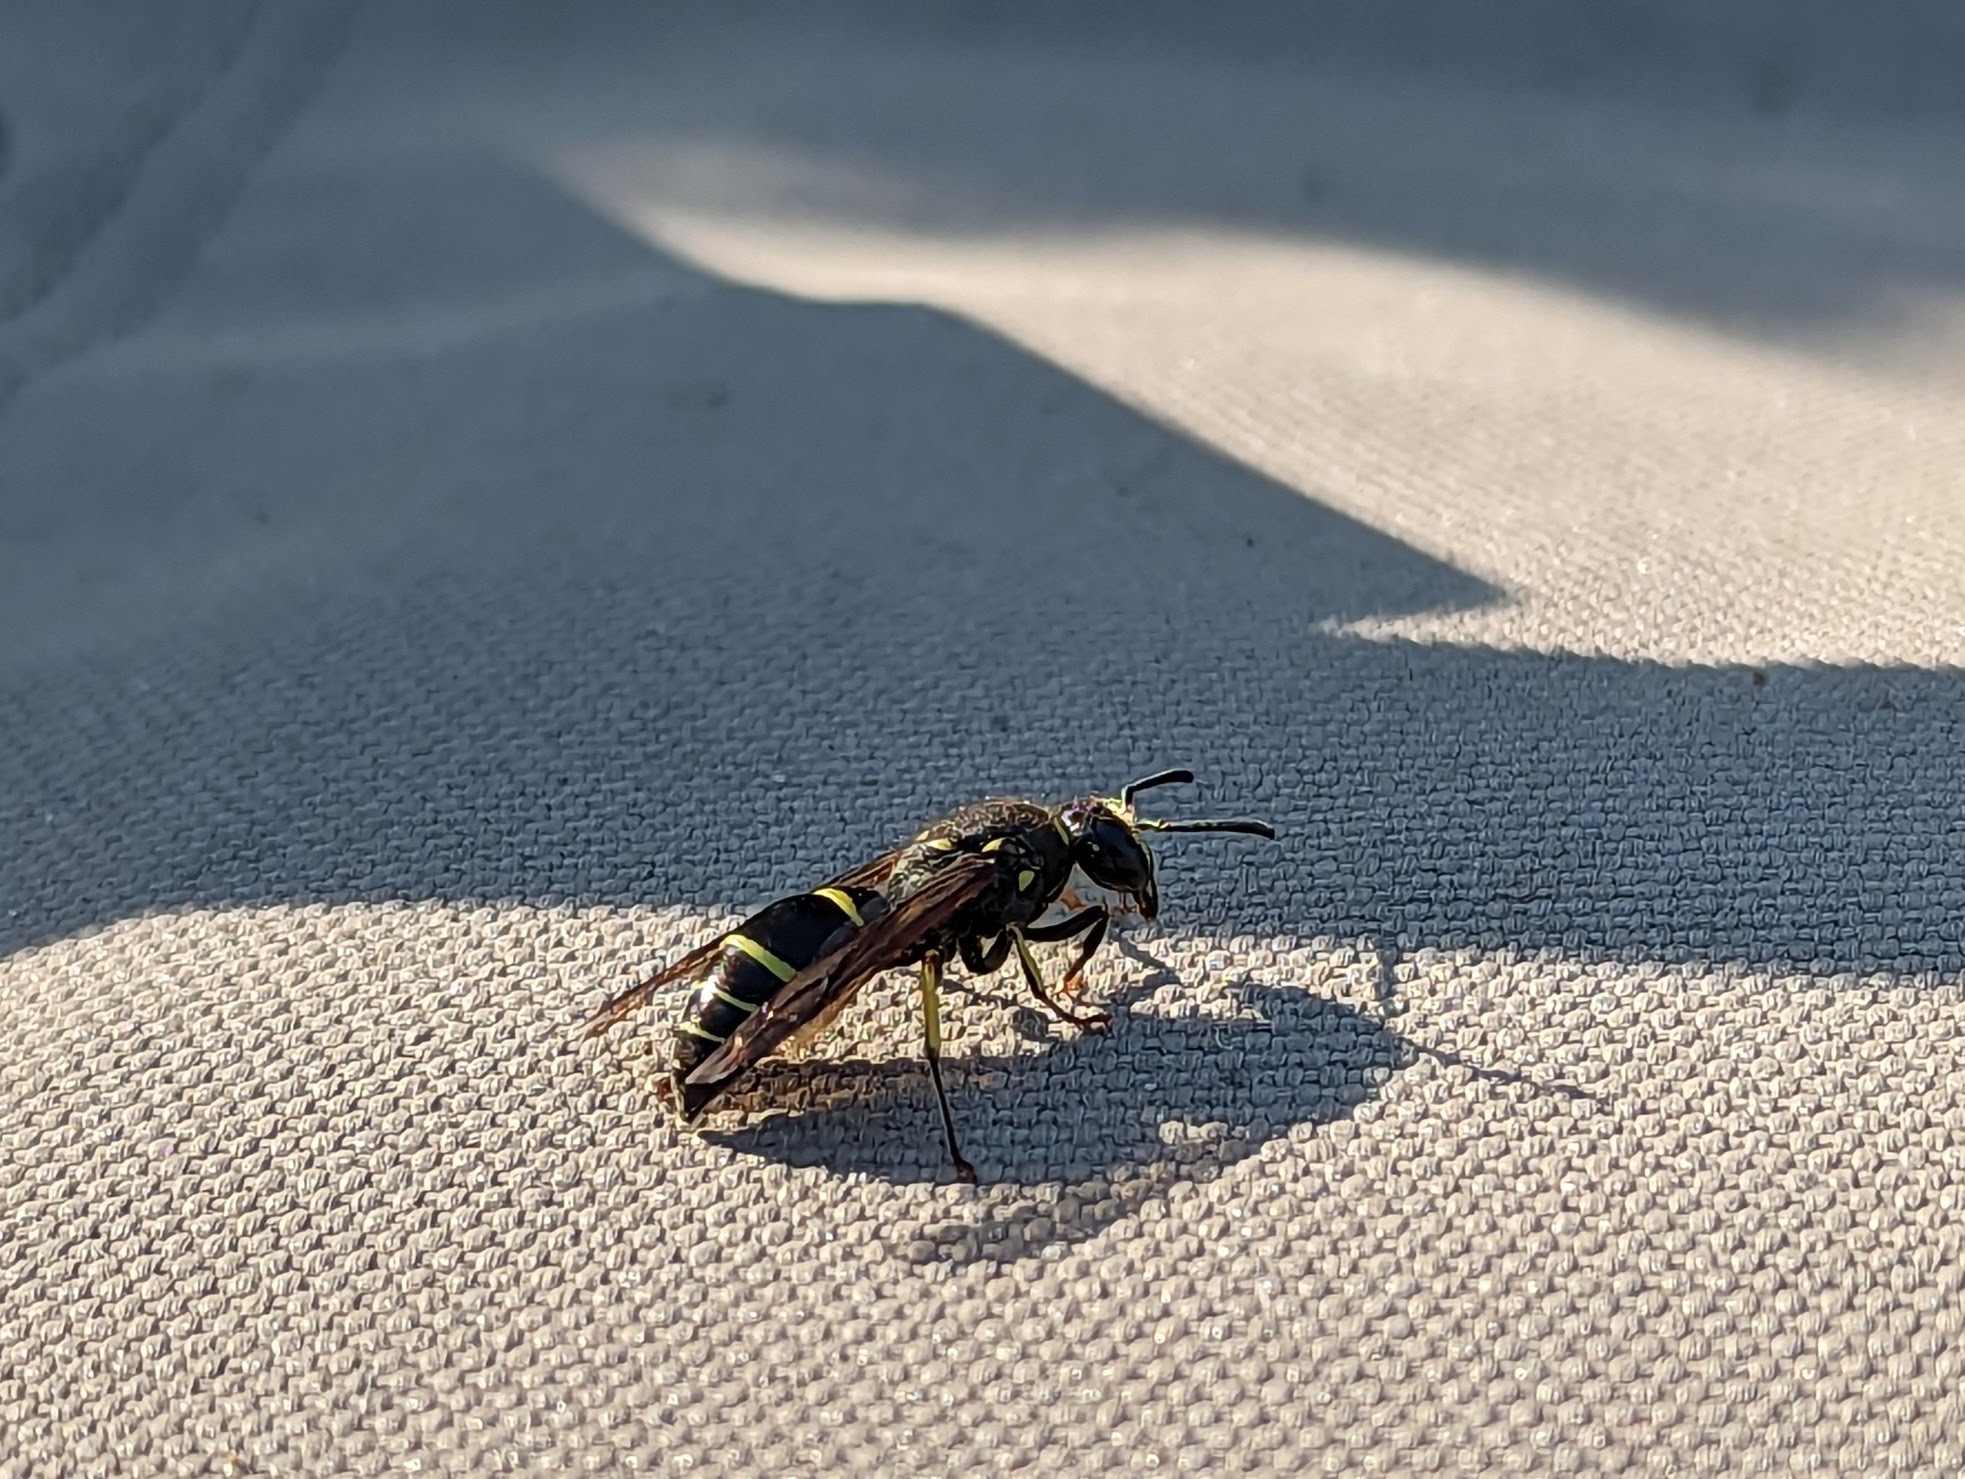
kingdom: Animalia
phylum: Arthropoda
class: Insecta
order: Hymenoptera
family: Vespidae
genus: Ancistrocerus
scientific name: Ancistrocerus
